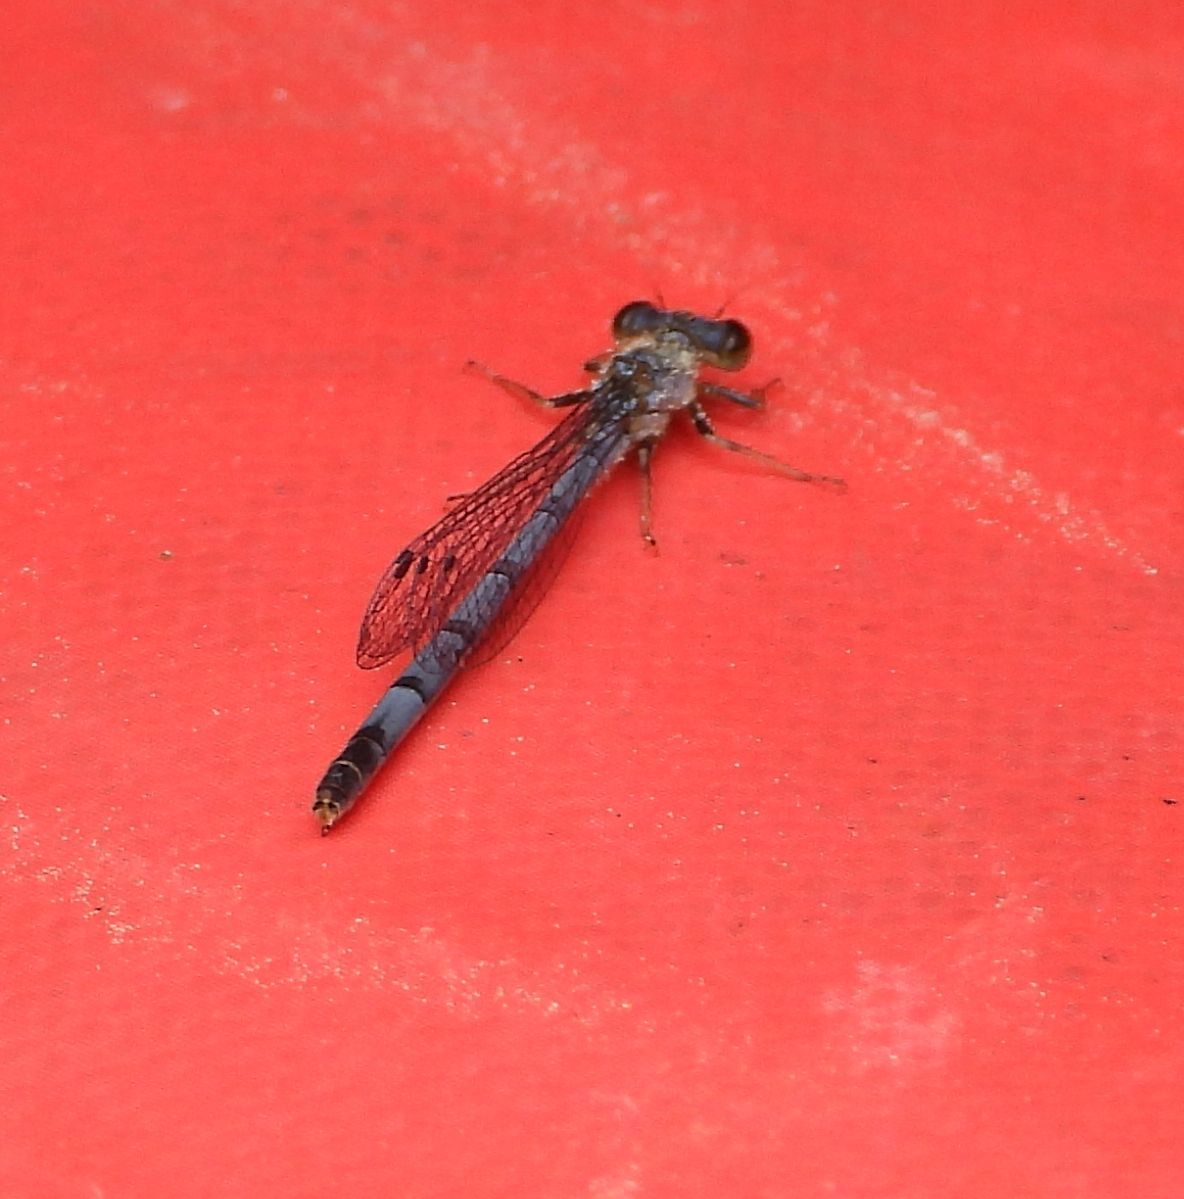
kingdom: Animalia
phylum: Arthropoda
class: Insecta
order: Odonata
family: Coenagrionidae
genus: Ischnura
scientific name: Ischnura verticalis
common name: Eastern forktail
